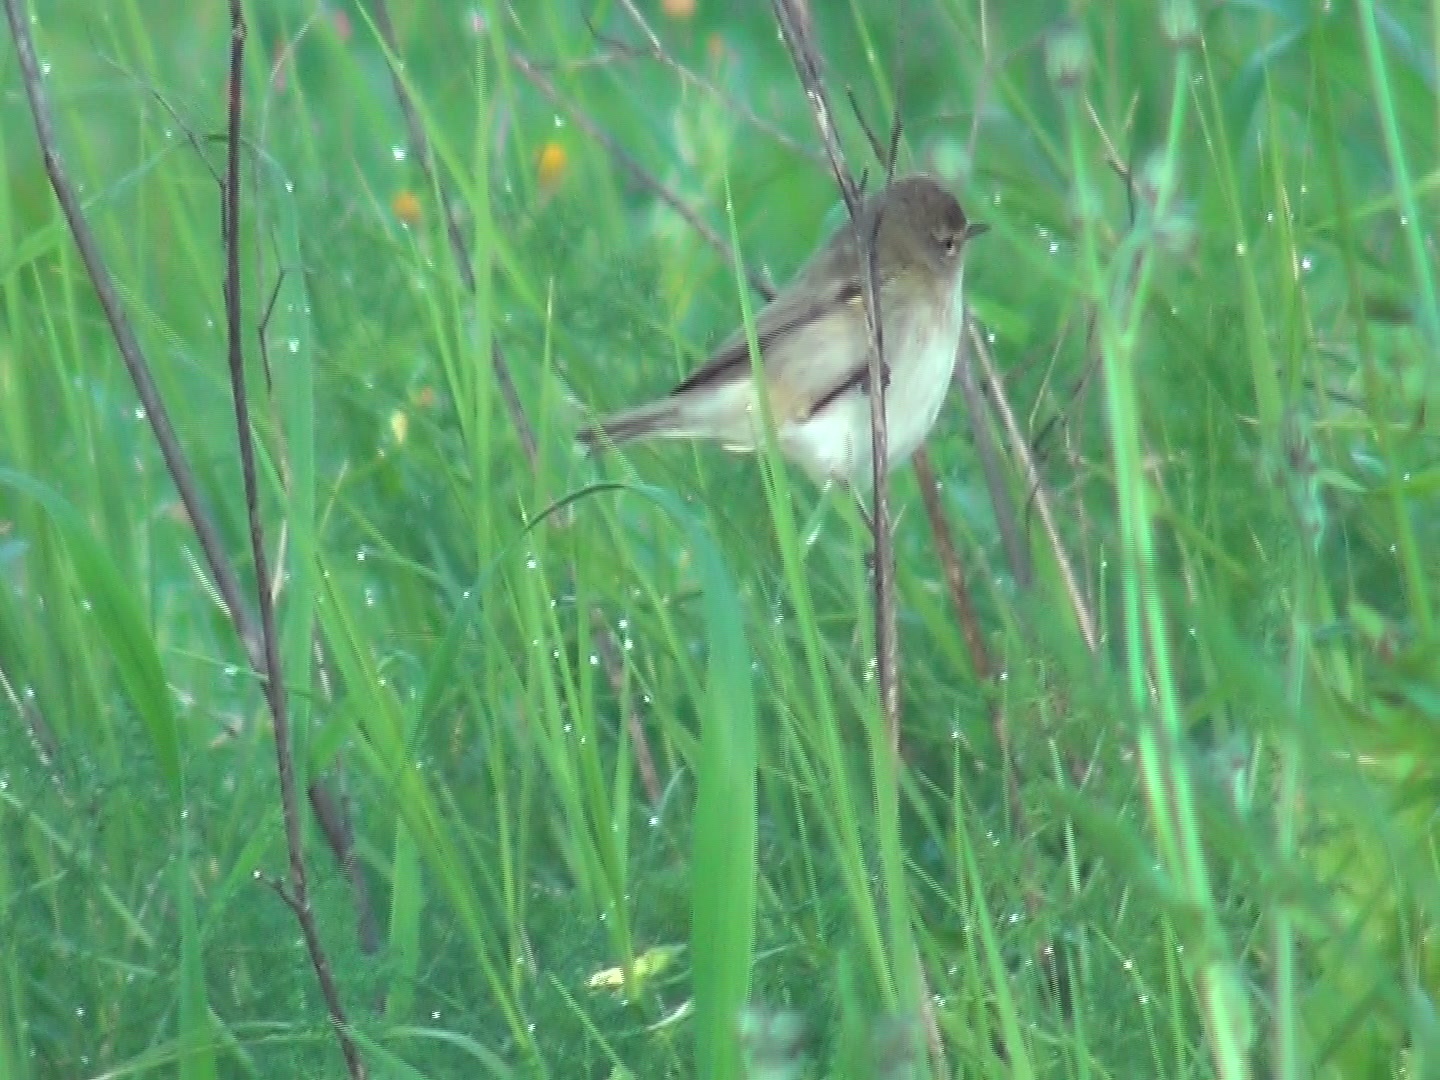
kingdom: Animalia
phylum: Chordata
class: Aves
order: Passeriformes
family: Phylloscopidae
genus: Phylloscopus
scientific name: Phylloscopus collybita
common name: Common chiffchaff
